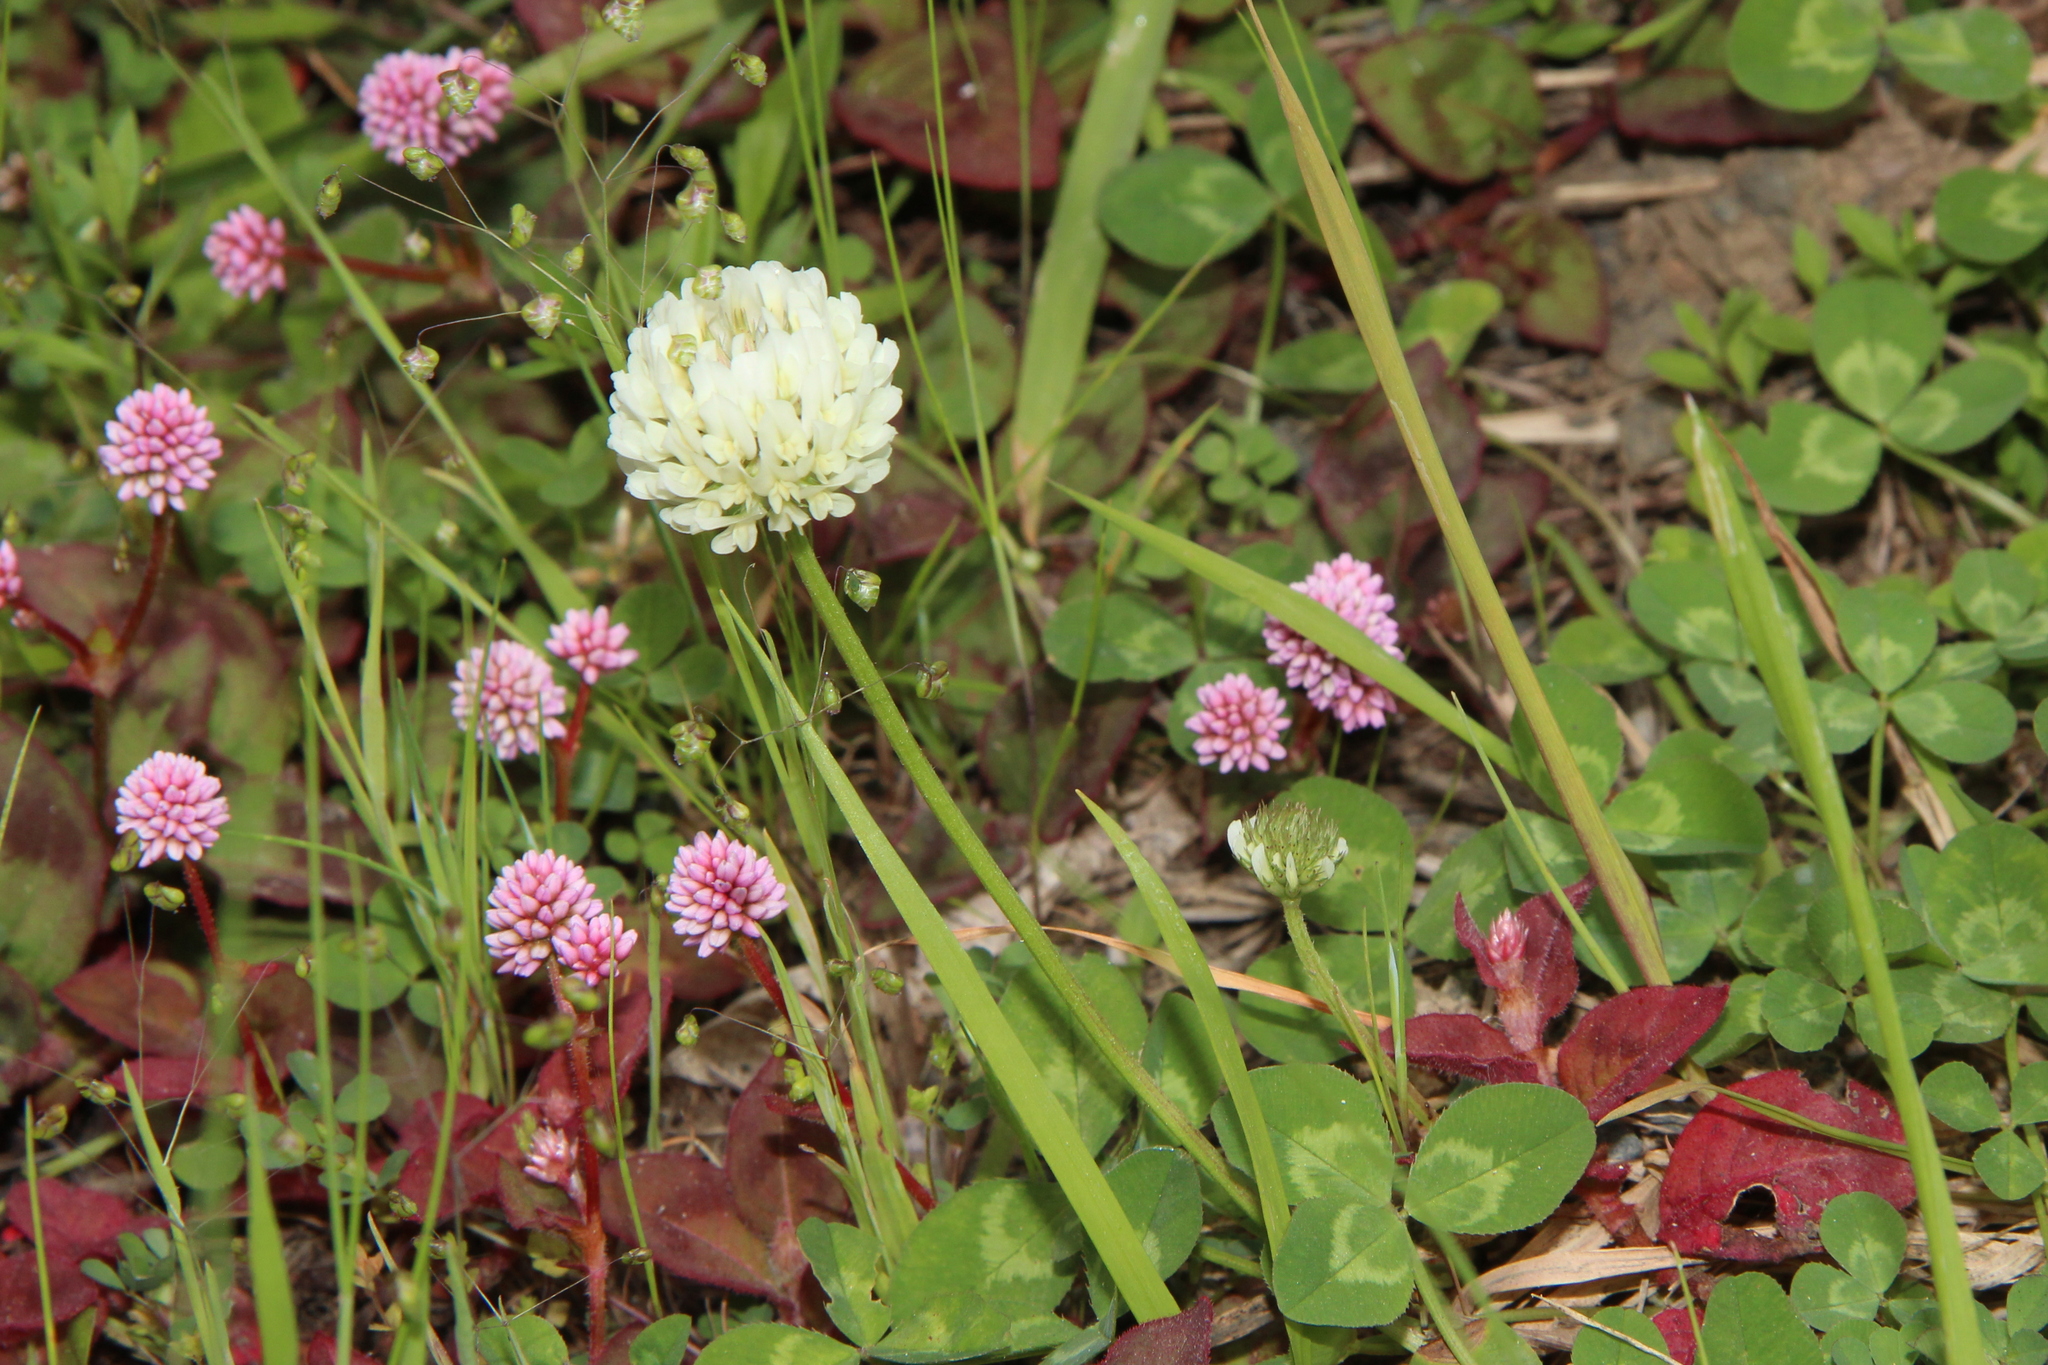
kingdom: Plantae
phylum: Tracheophyta
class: Magnoliopsida
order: Fabales
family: Fabaceae
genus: Trifolium
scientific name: Trifolium repens
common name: White clover
